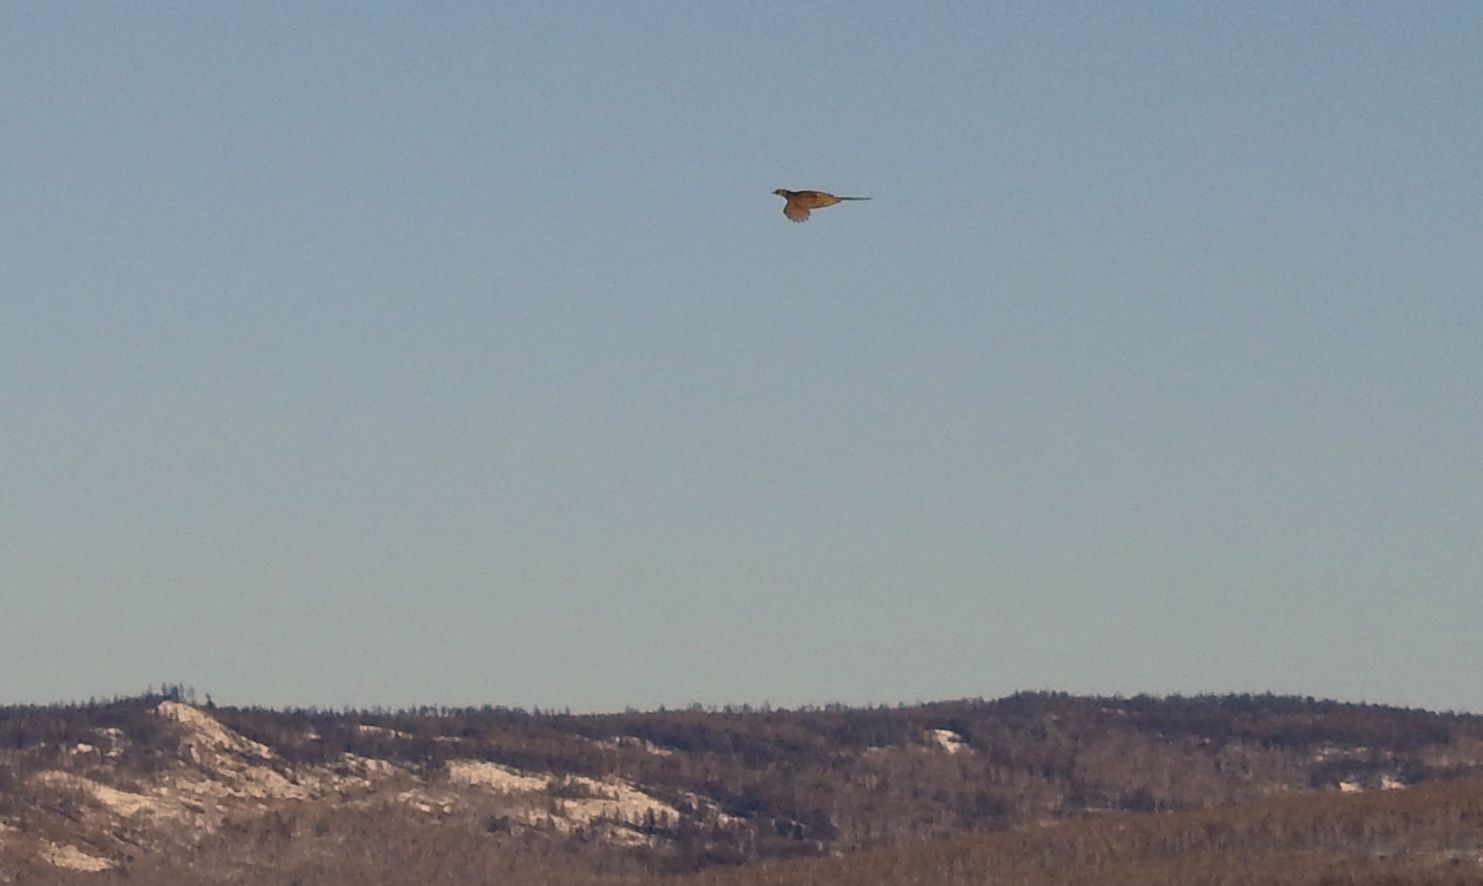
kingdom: Animalia
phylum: Chordata
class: Aves
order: Galliformes
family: Phasianidae
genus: Phasianus
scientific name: Phasianus colchicus
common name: Common pheasant
